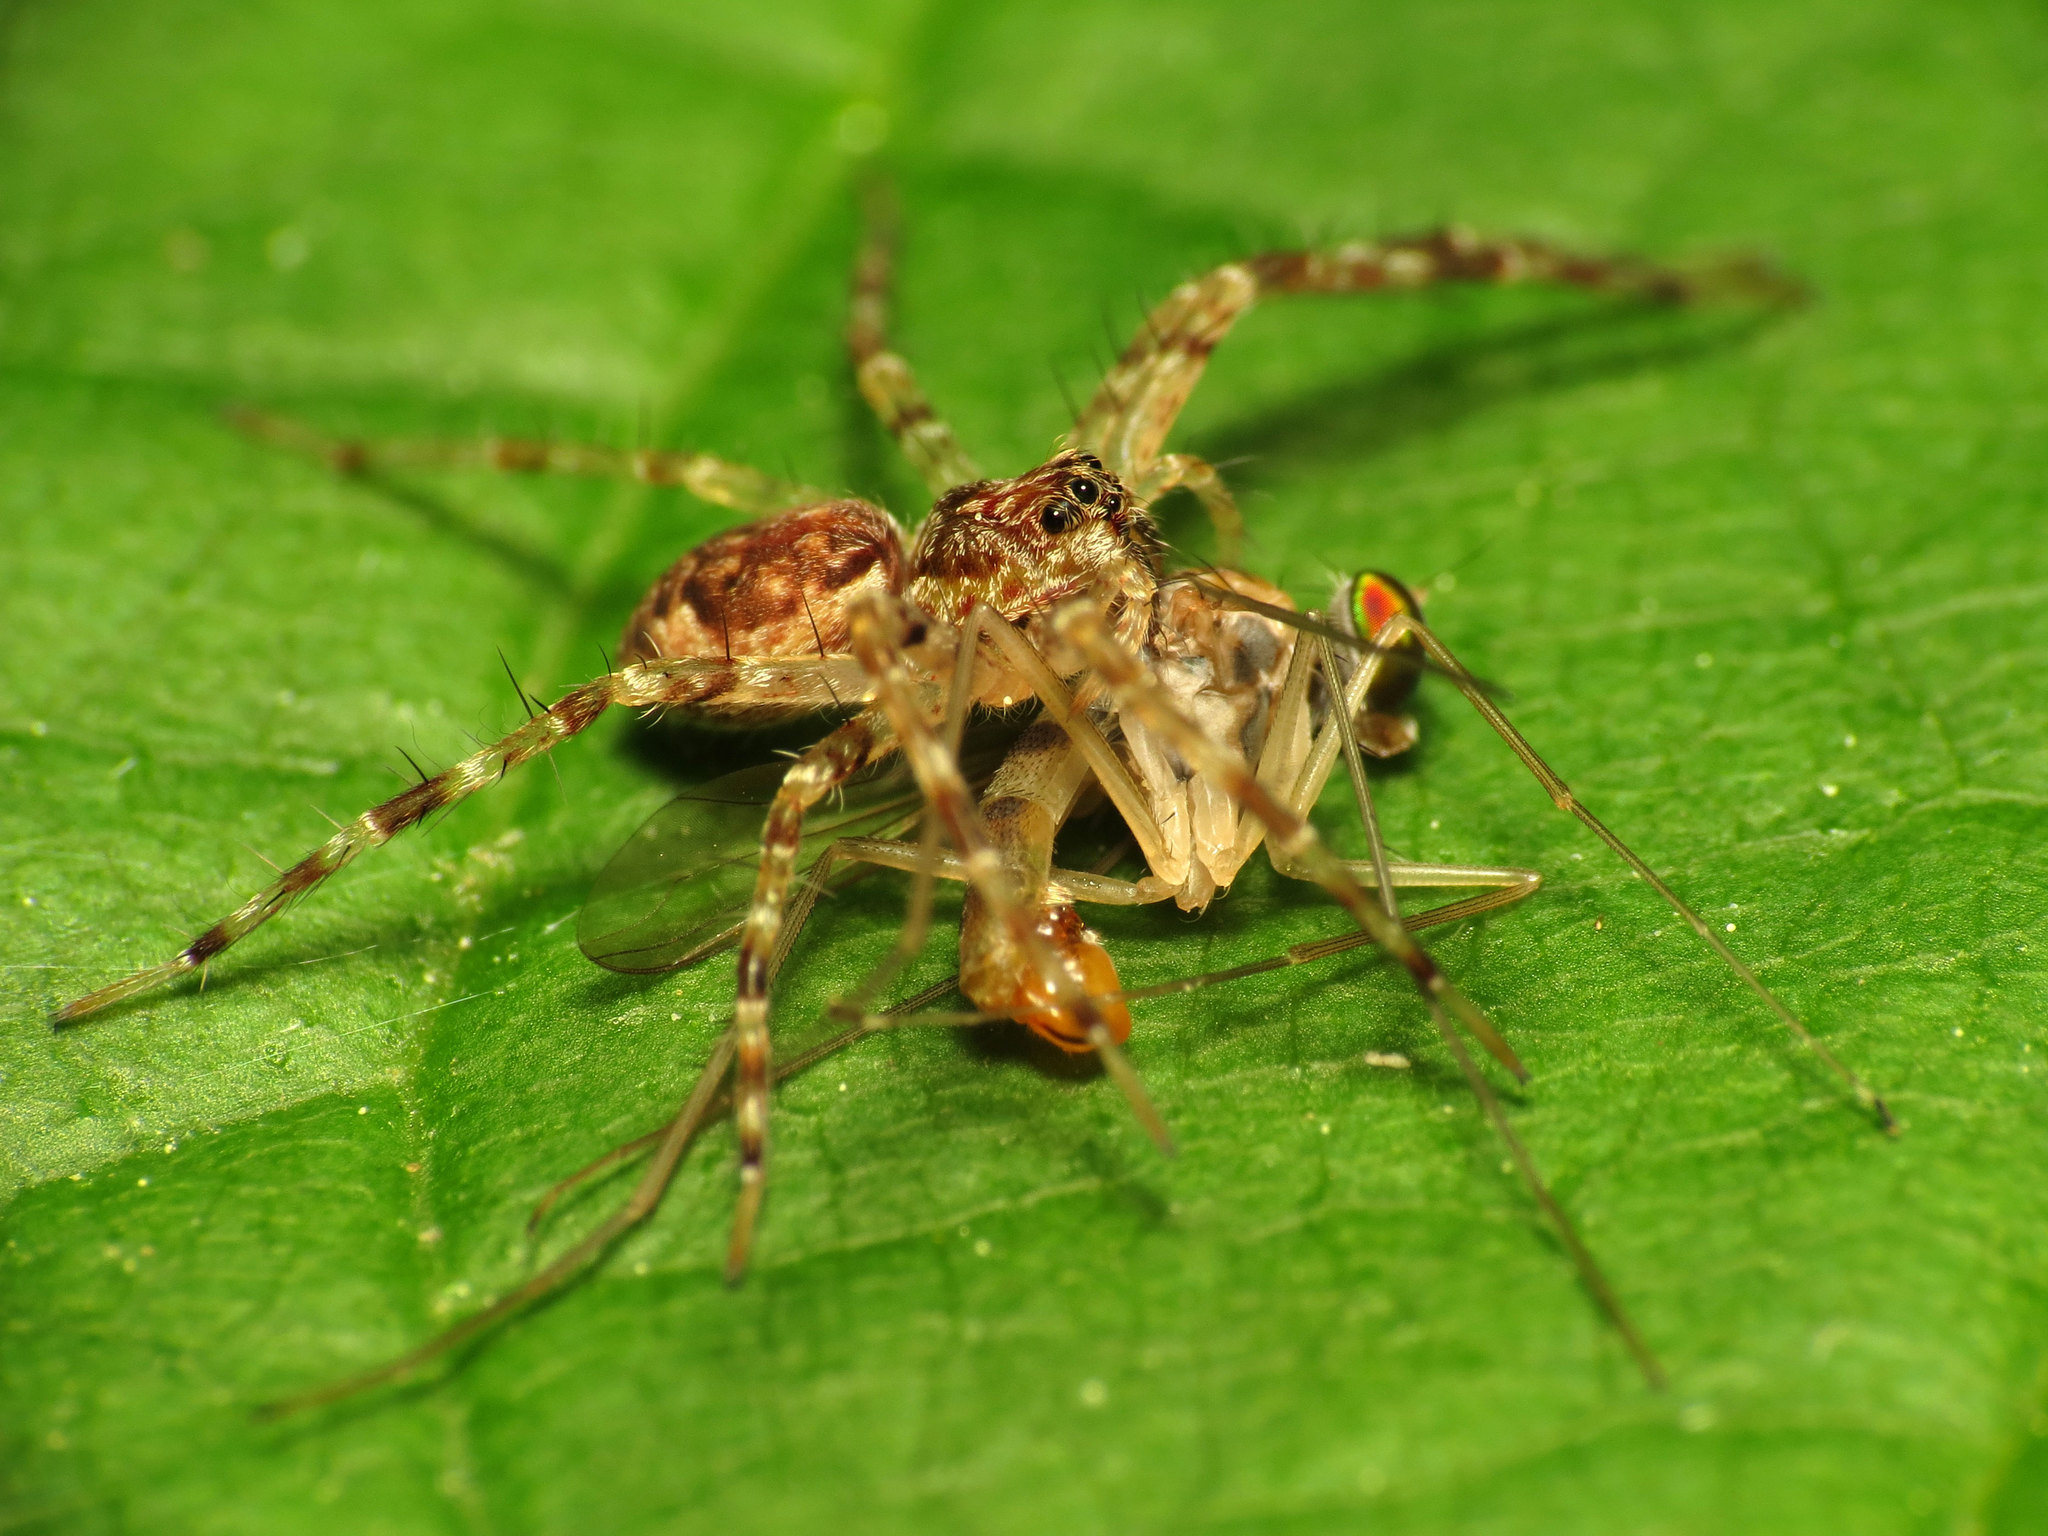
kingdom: Animalia
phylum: Arthropoda
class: Insecta
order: Diptera
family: Dolichopodidae
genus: Neurigona
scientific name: Neurigona carbonifer
